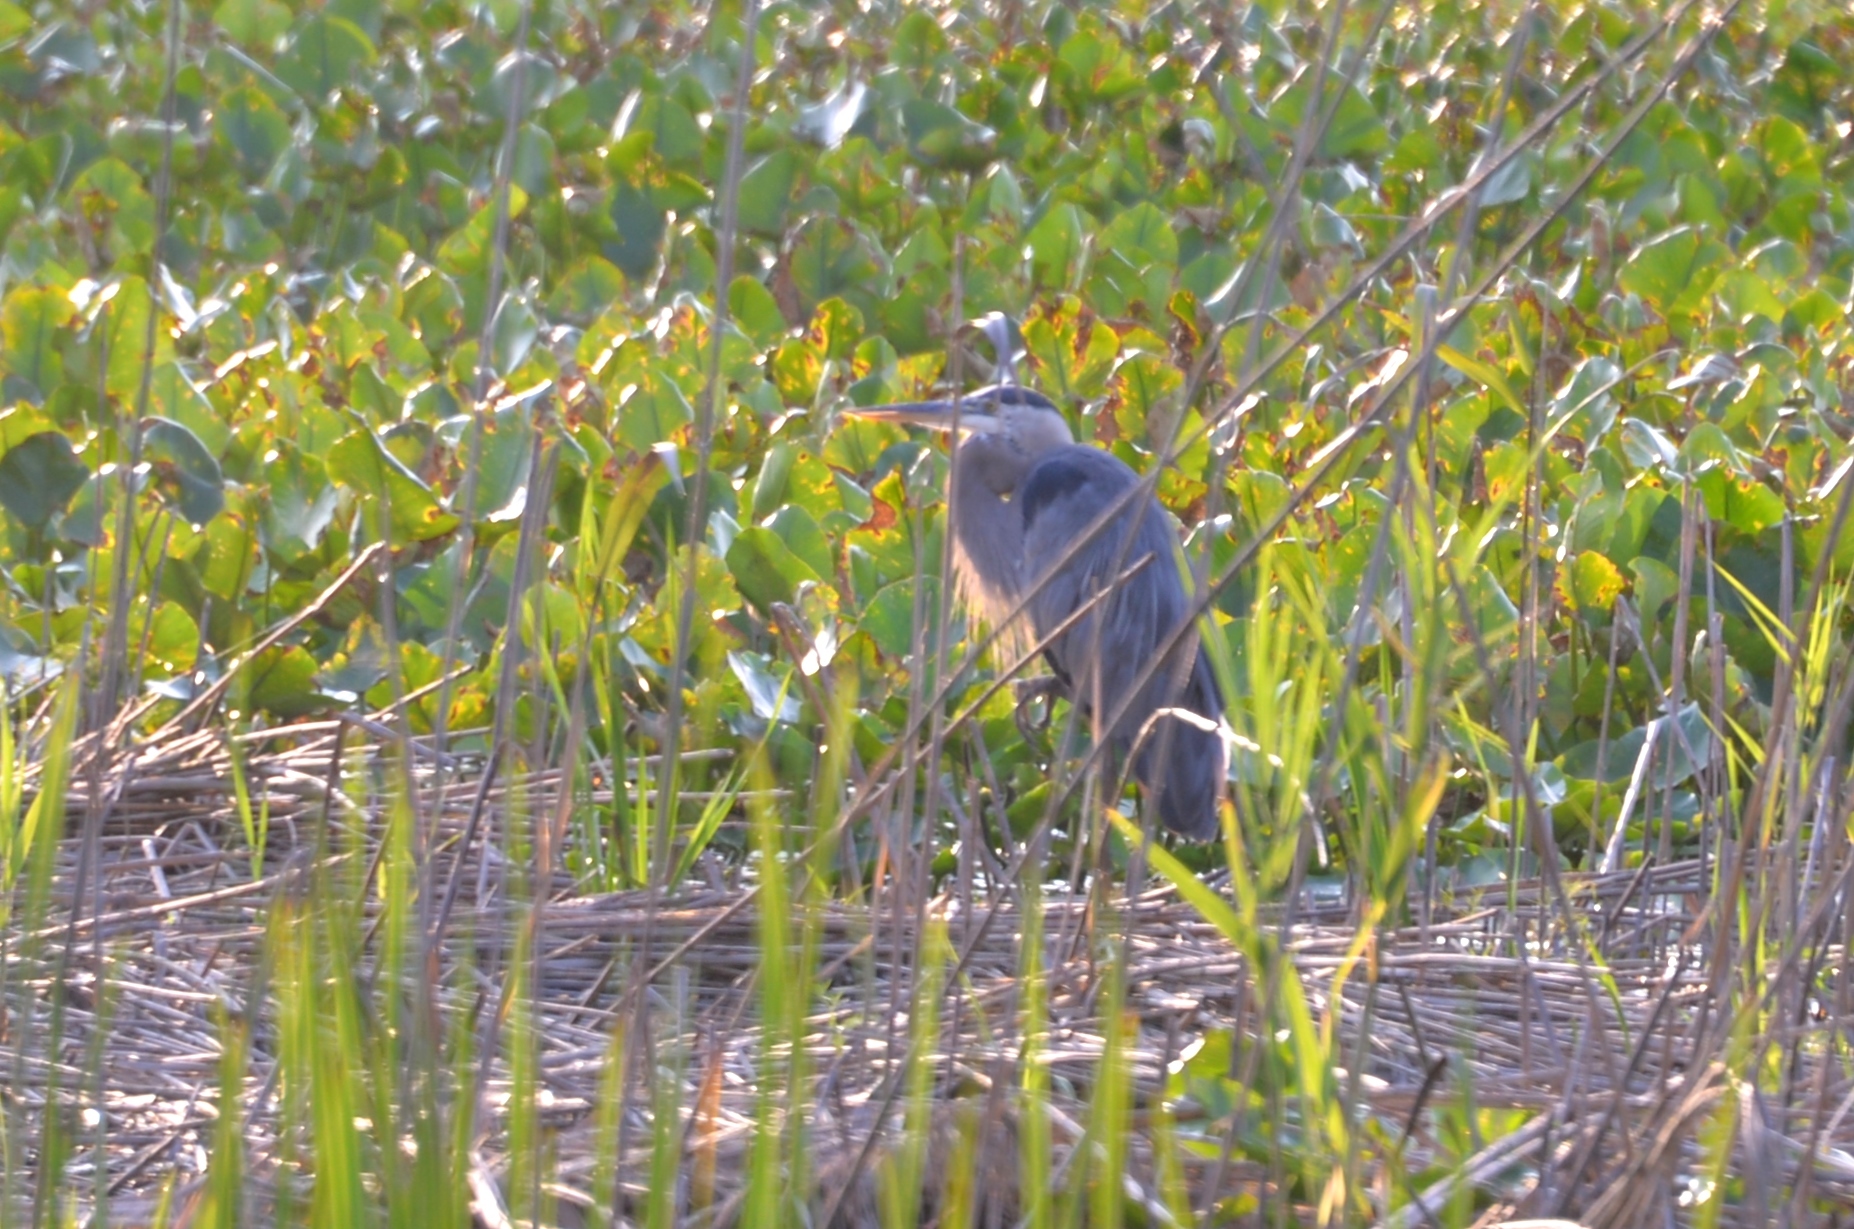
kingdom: Animalia
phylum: Chordata
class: Aves
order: Pelecaniformes
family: Ardeidae
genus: Ardea
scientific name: Ardea herodias
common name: Great blue heron
